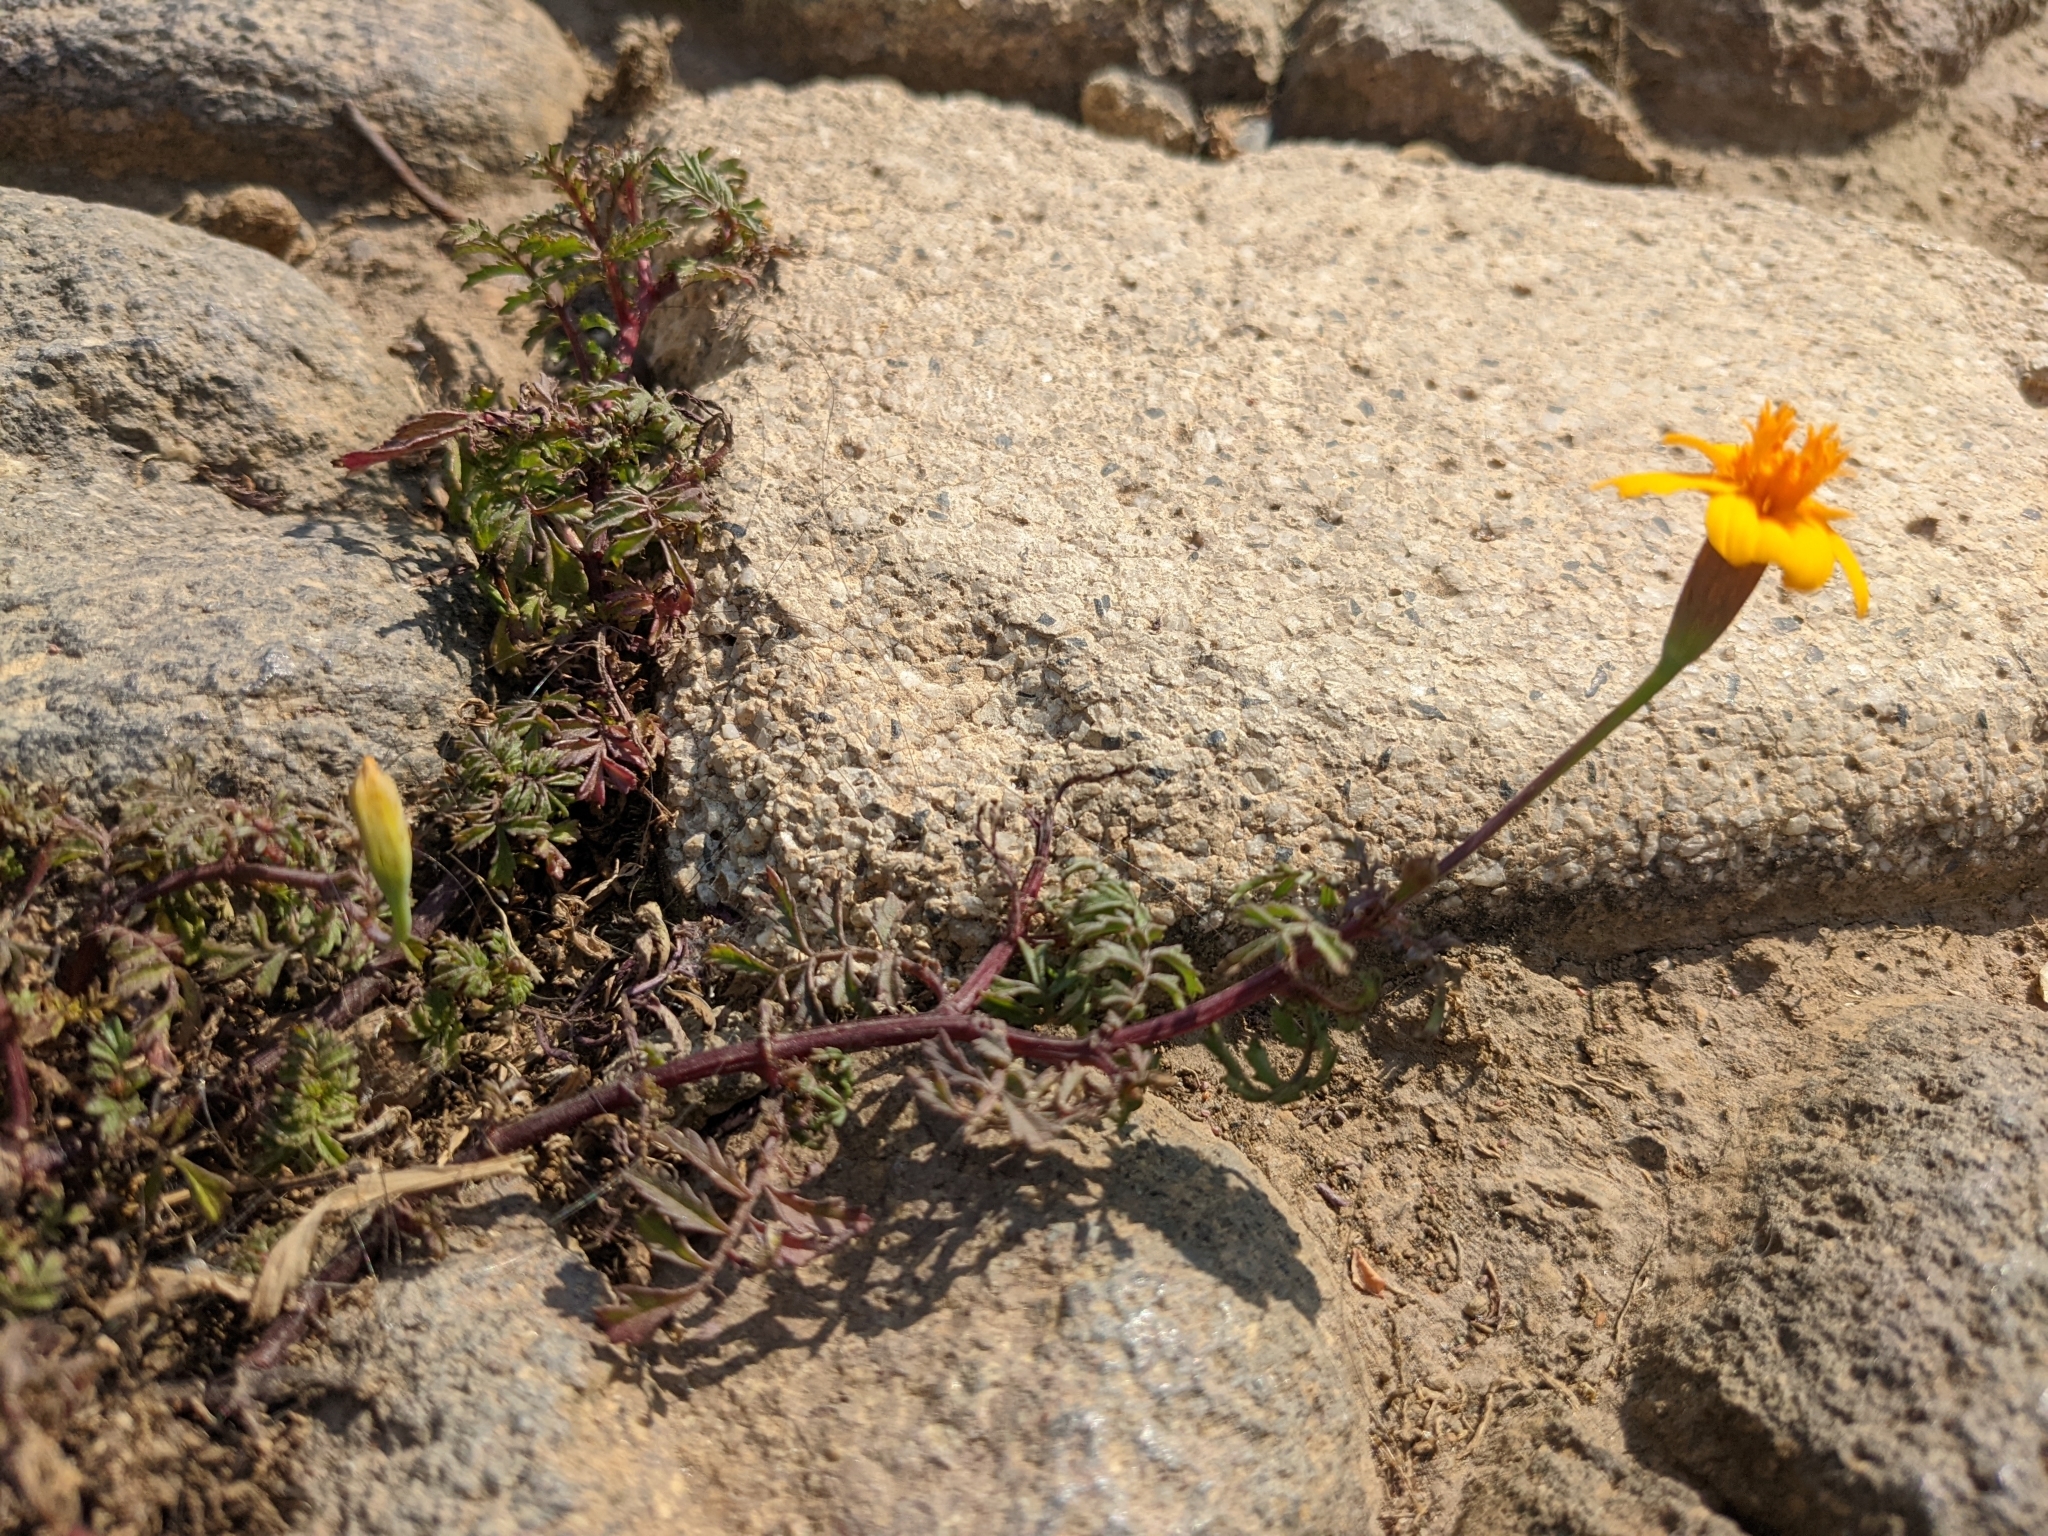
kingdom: Plantae
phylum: Tracheophyta
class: Magnoliopsida
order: Asterales
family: Asteraceae
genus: Tagetes
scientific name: Tagetes lunulata
